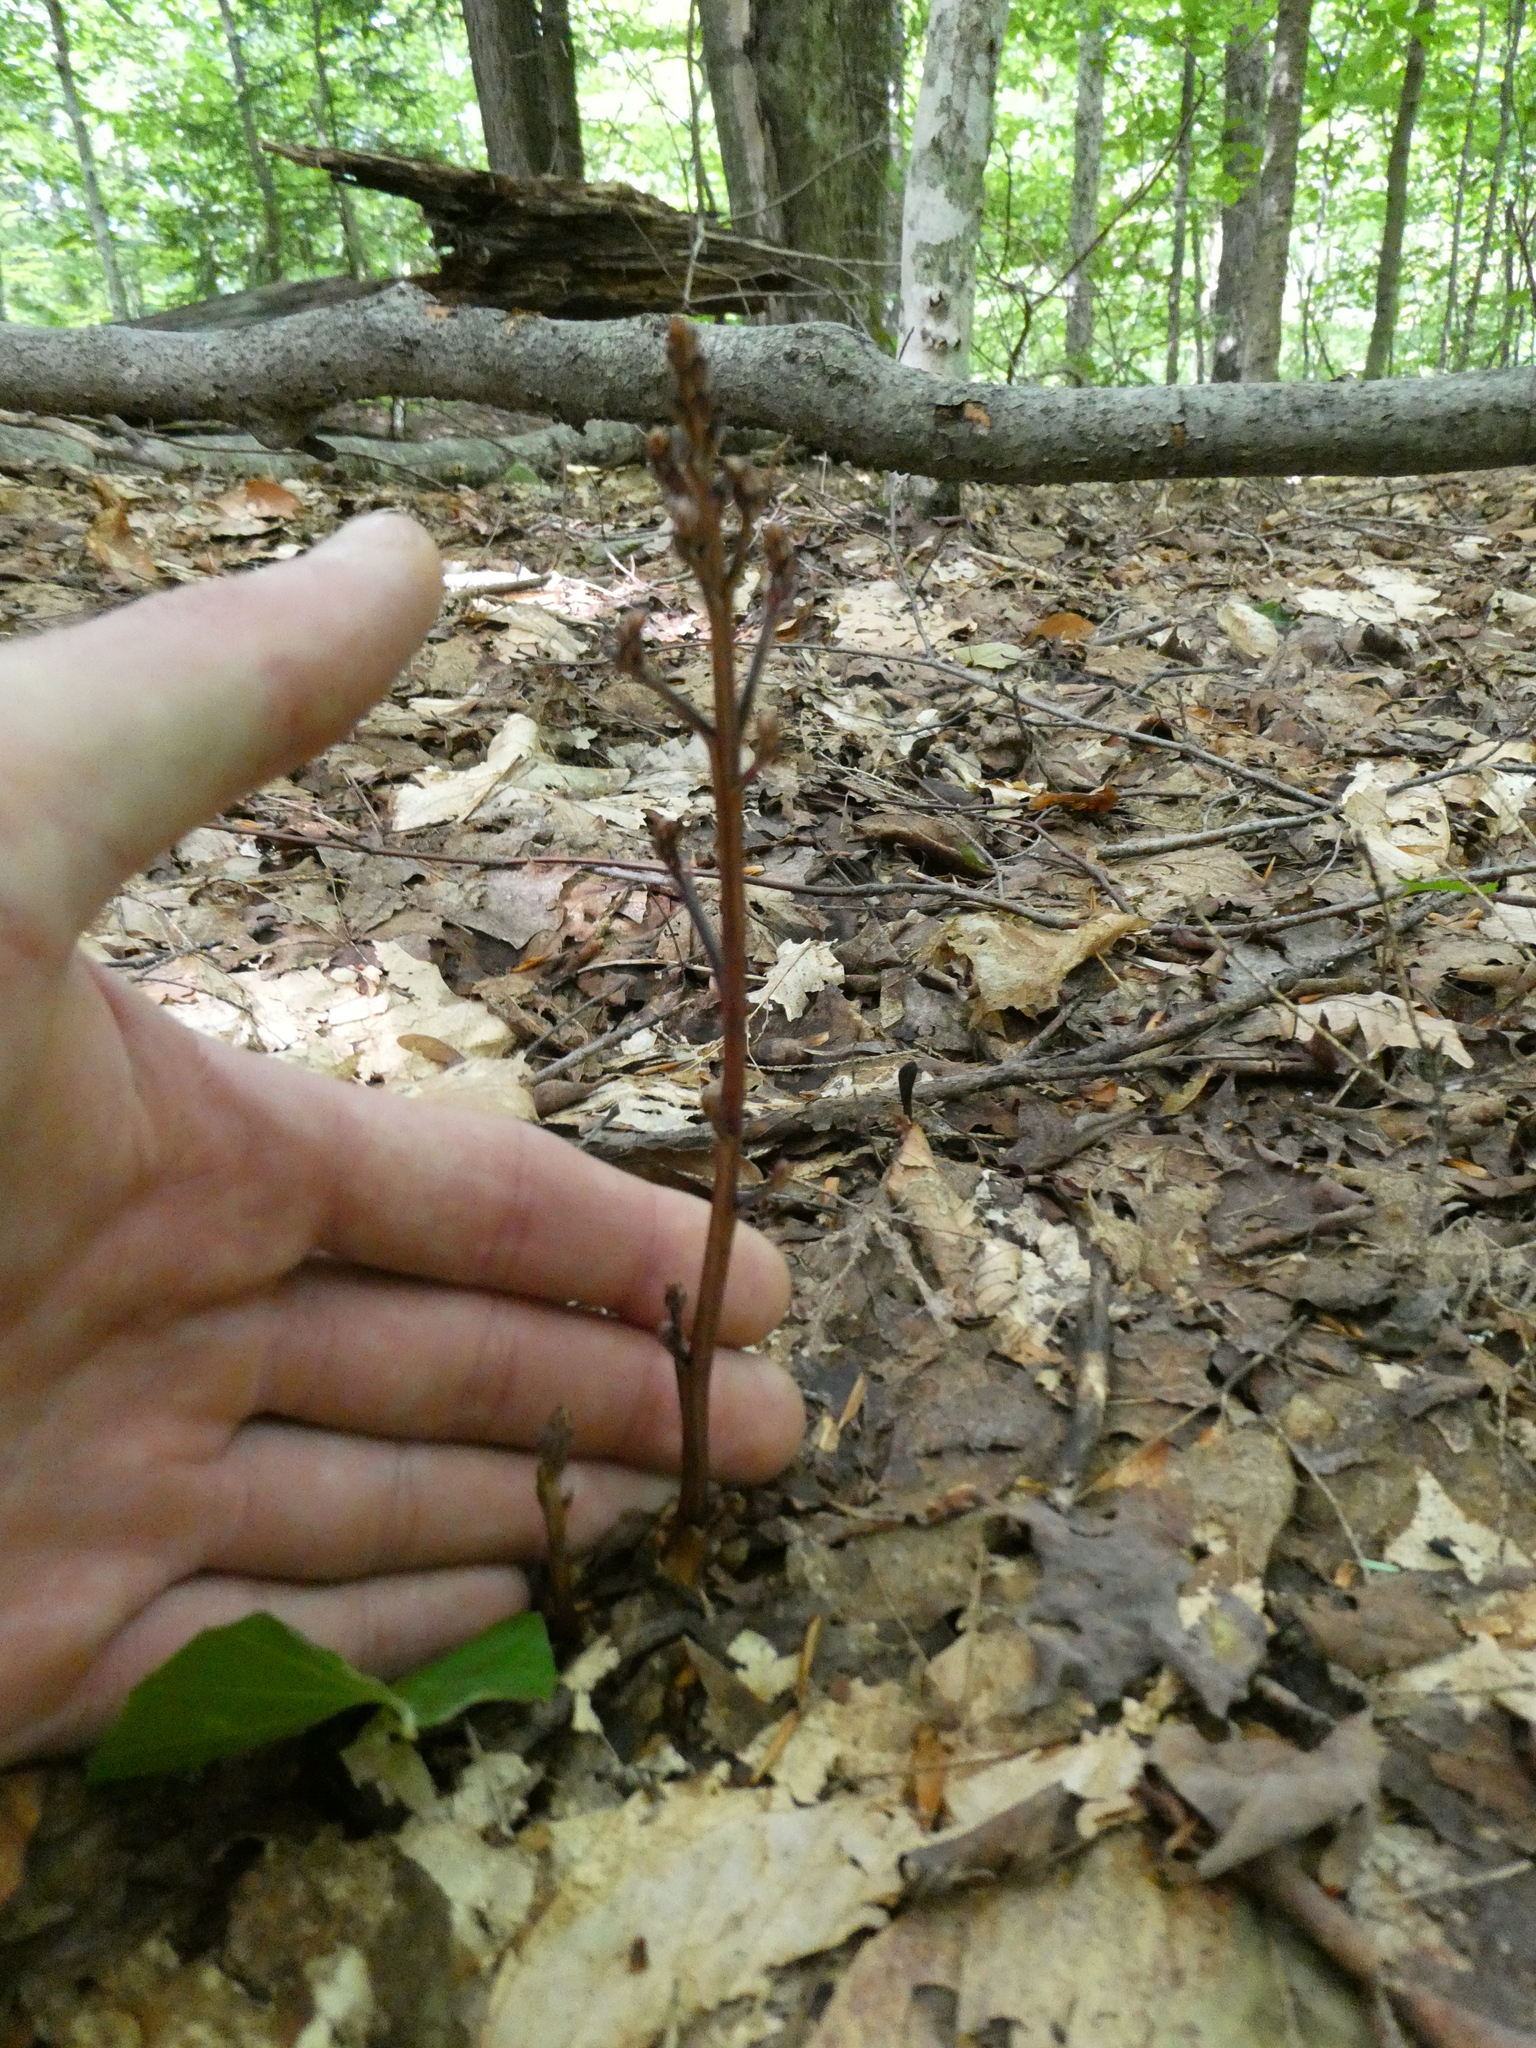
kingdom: Plantae
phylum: Tracheophyta
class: Magnoliopsida
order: Lamiales
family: Orobanchaceae
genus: Epifagus
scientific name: Epifagus virginiana
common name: Beechdrops
